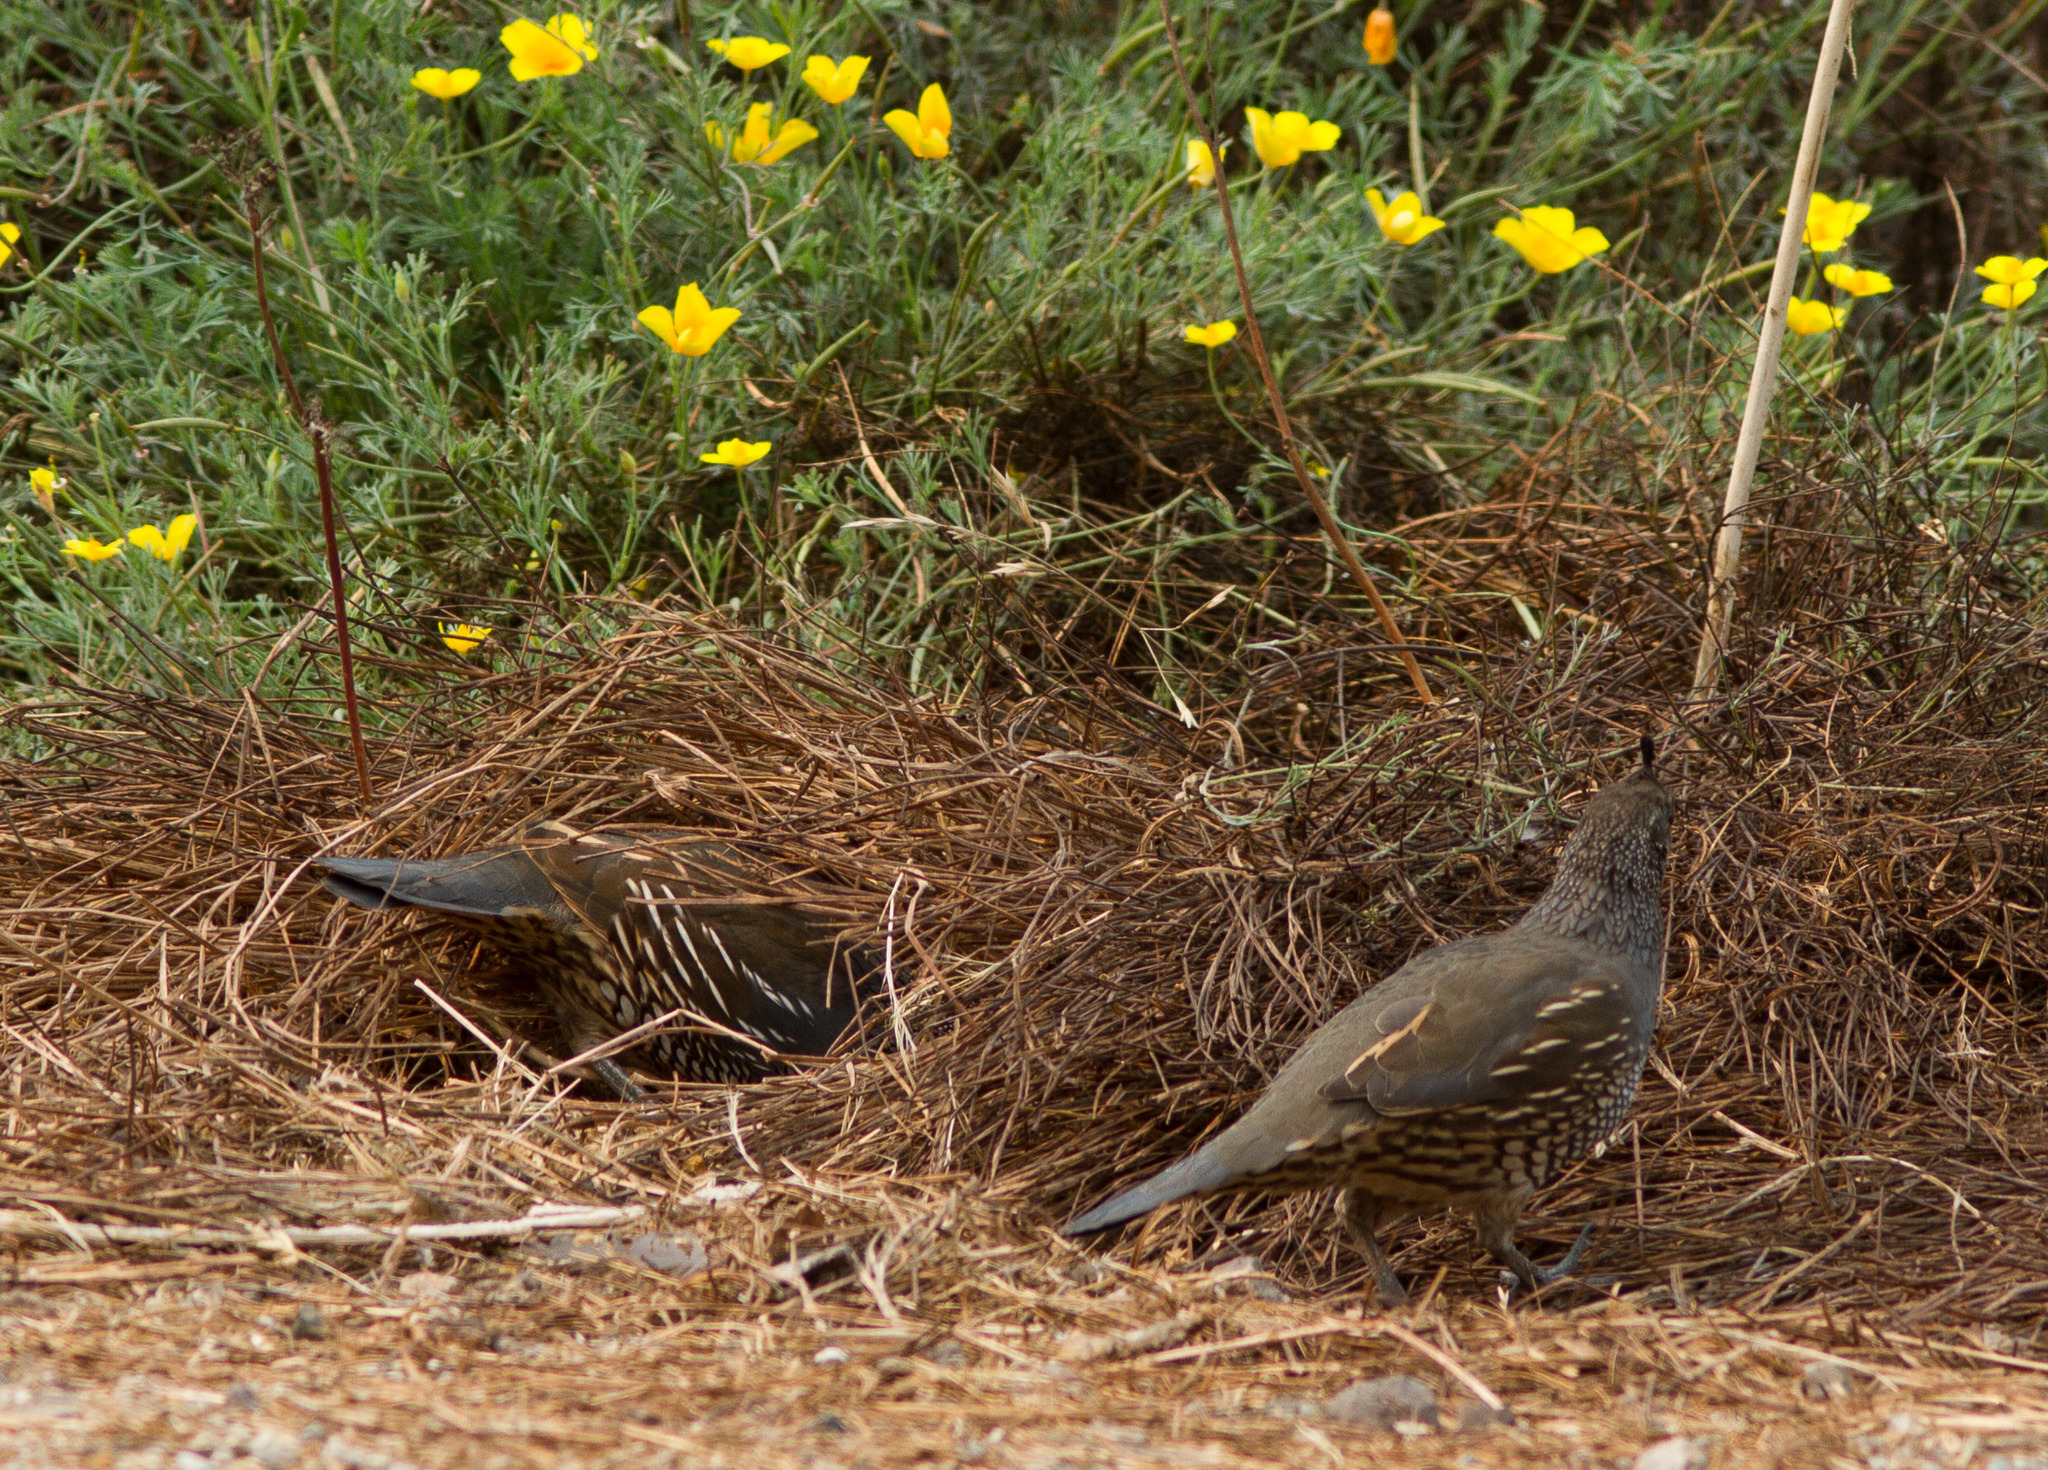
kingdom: Animalia
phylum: Chordata
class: Aves
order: Galliformes
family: Odontophoridae
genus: Callipepla
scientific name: Callipepla californica
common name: California quail
